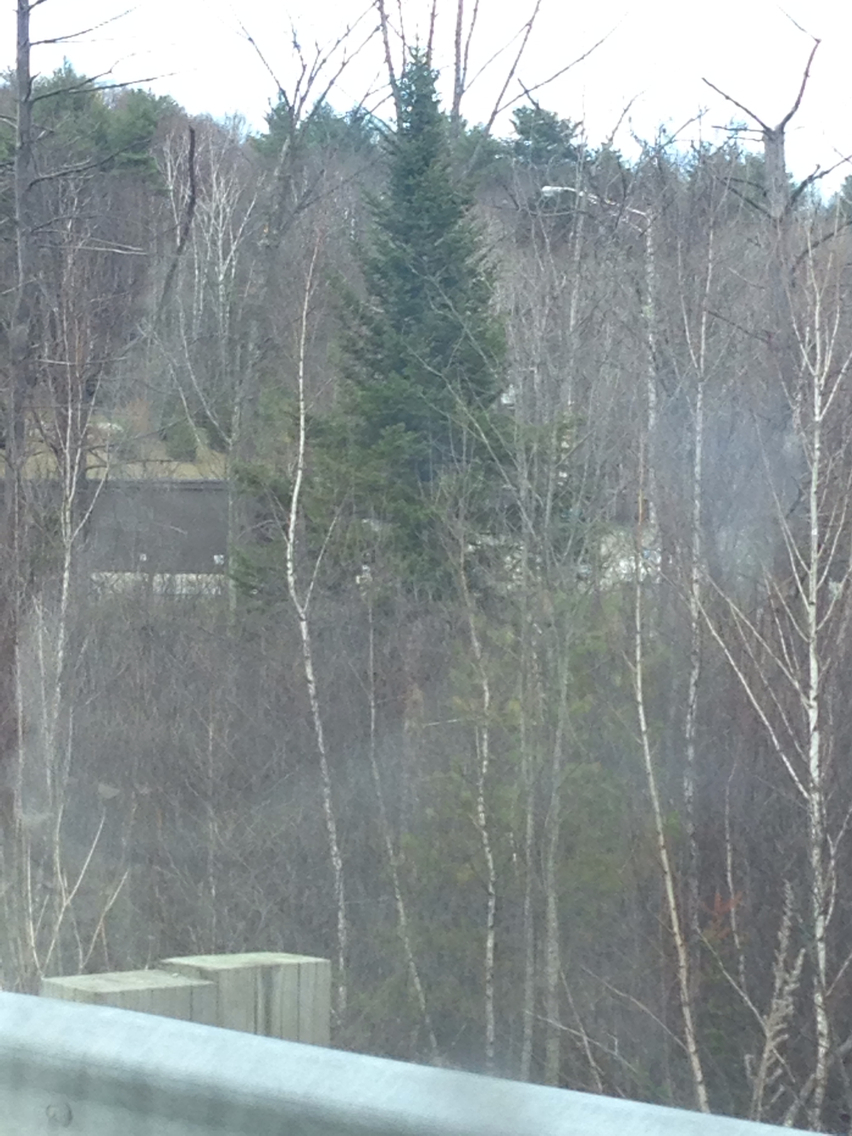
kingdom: Plantae
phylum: Tracheophyta
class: Pinopsida
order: Pinales
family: Pinaceae
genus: Abies
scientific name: Abies balsamea
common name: Balsam fir
